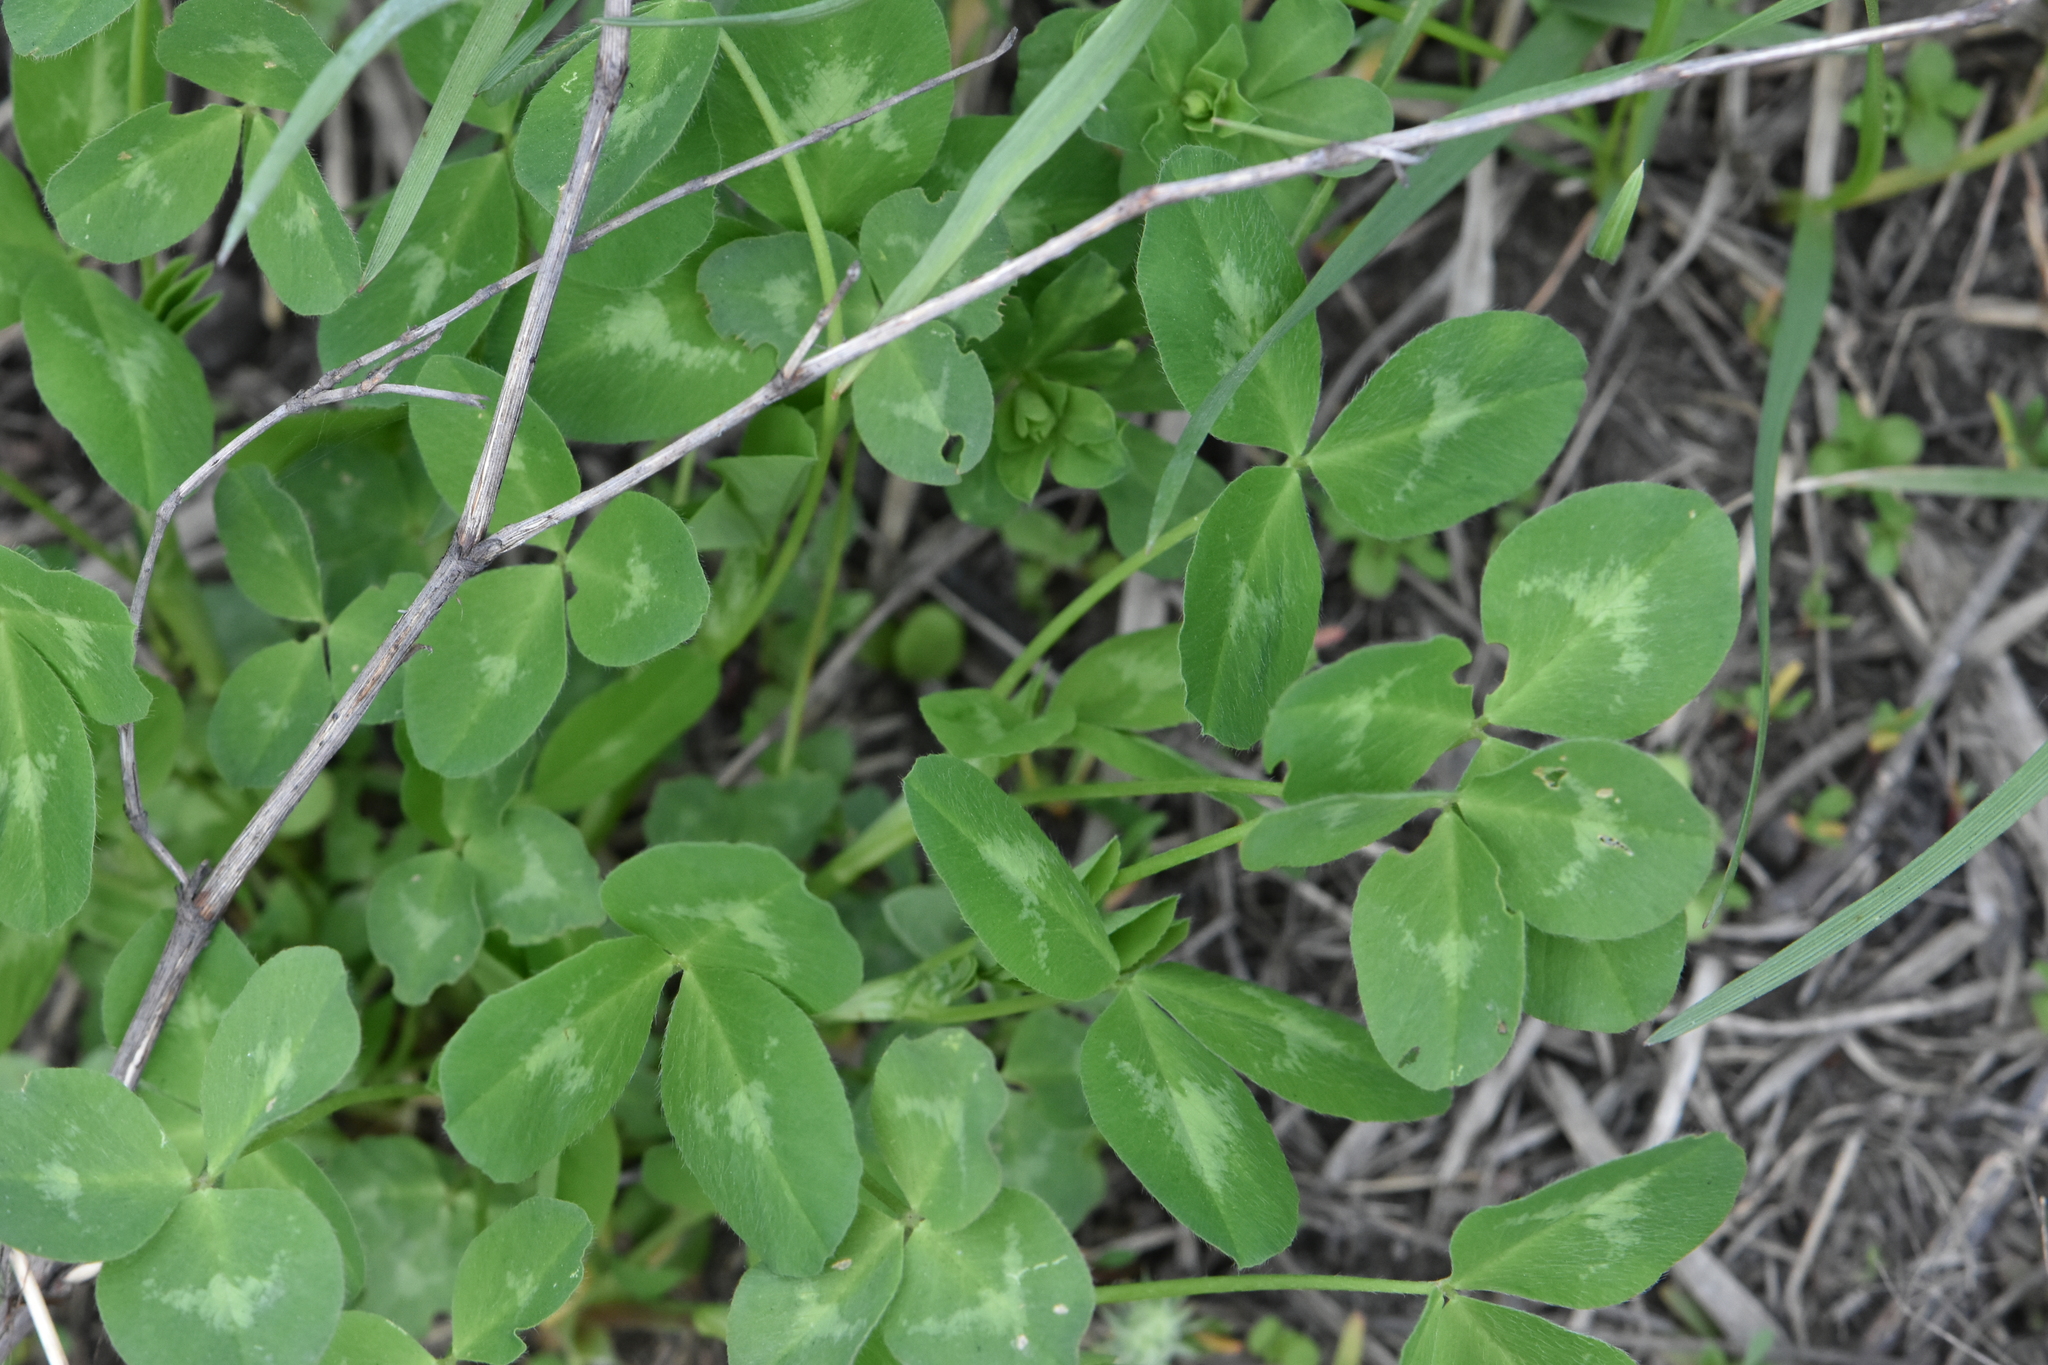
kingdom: Plantae
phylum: Tracheophyta
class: Magnoliopsida
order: Fabales
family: Fabaceae
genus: Trifolium
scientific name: Trifolium pratense
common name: Red clover
